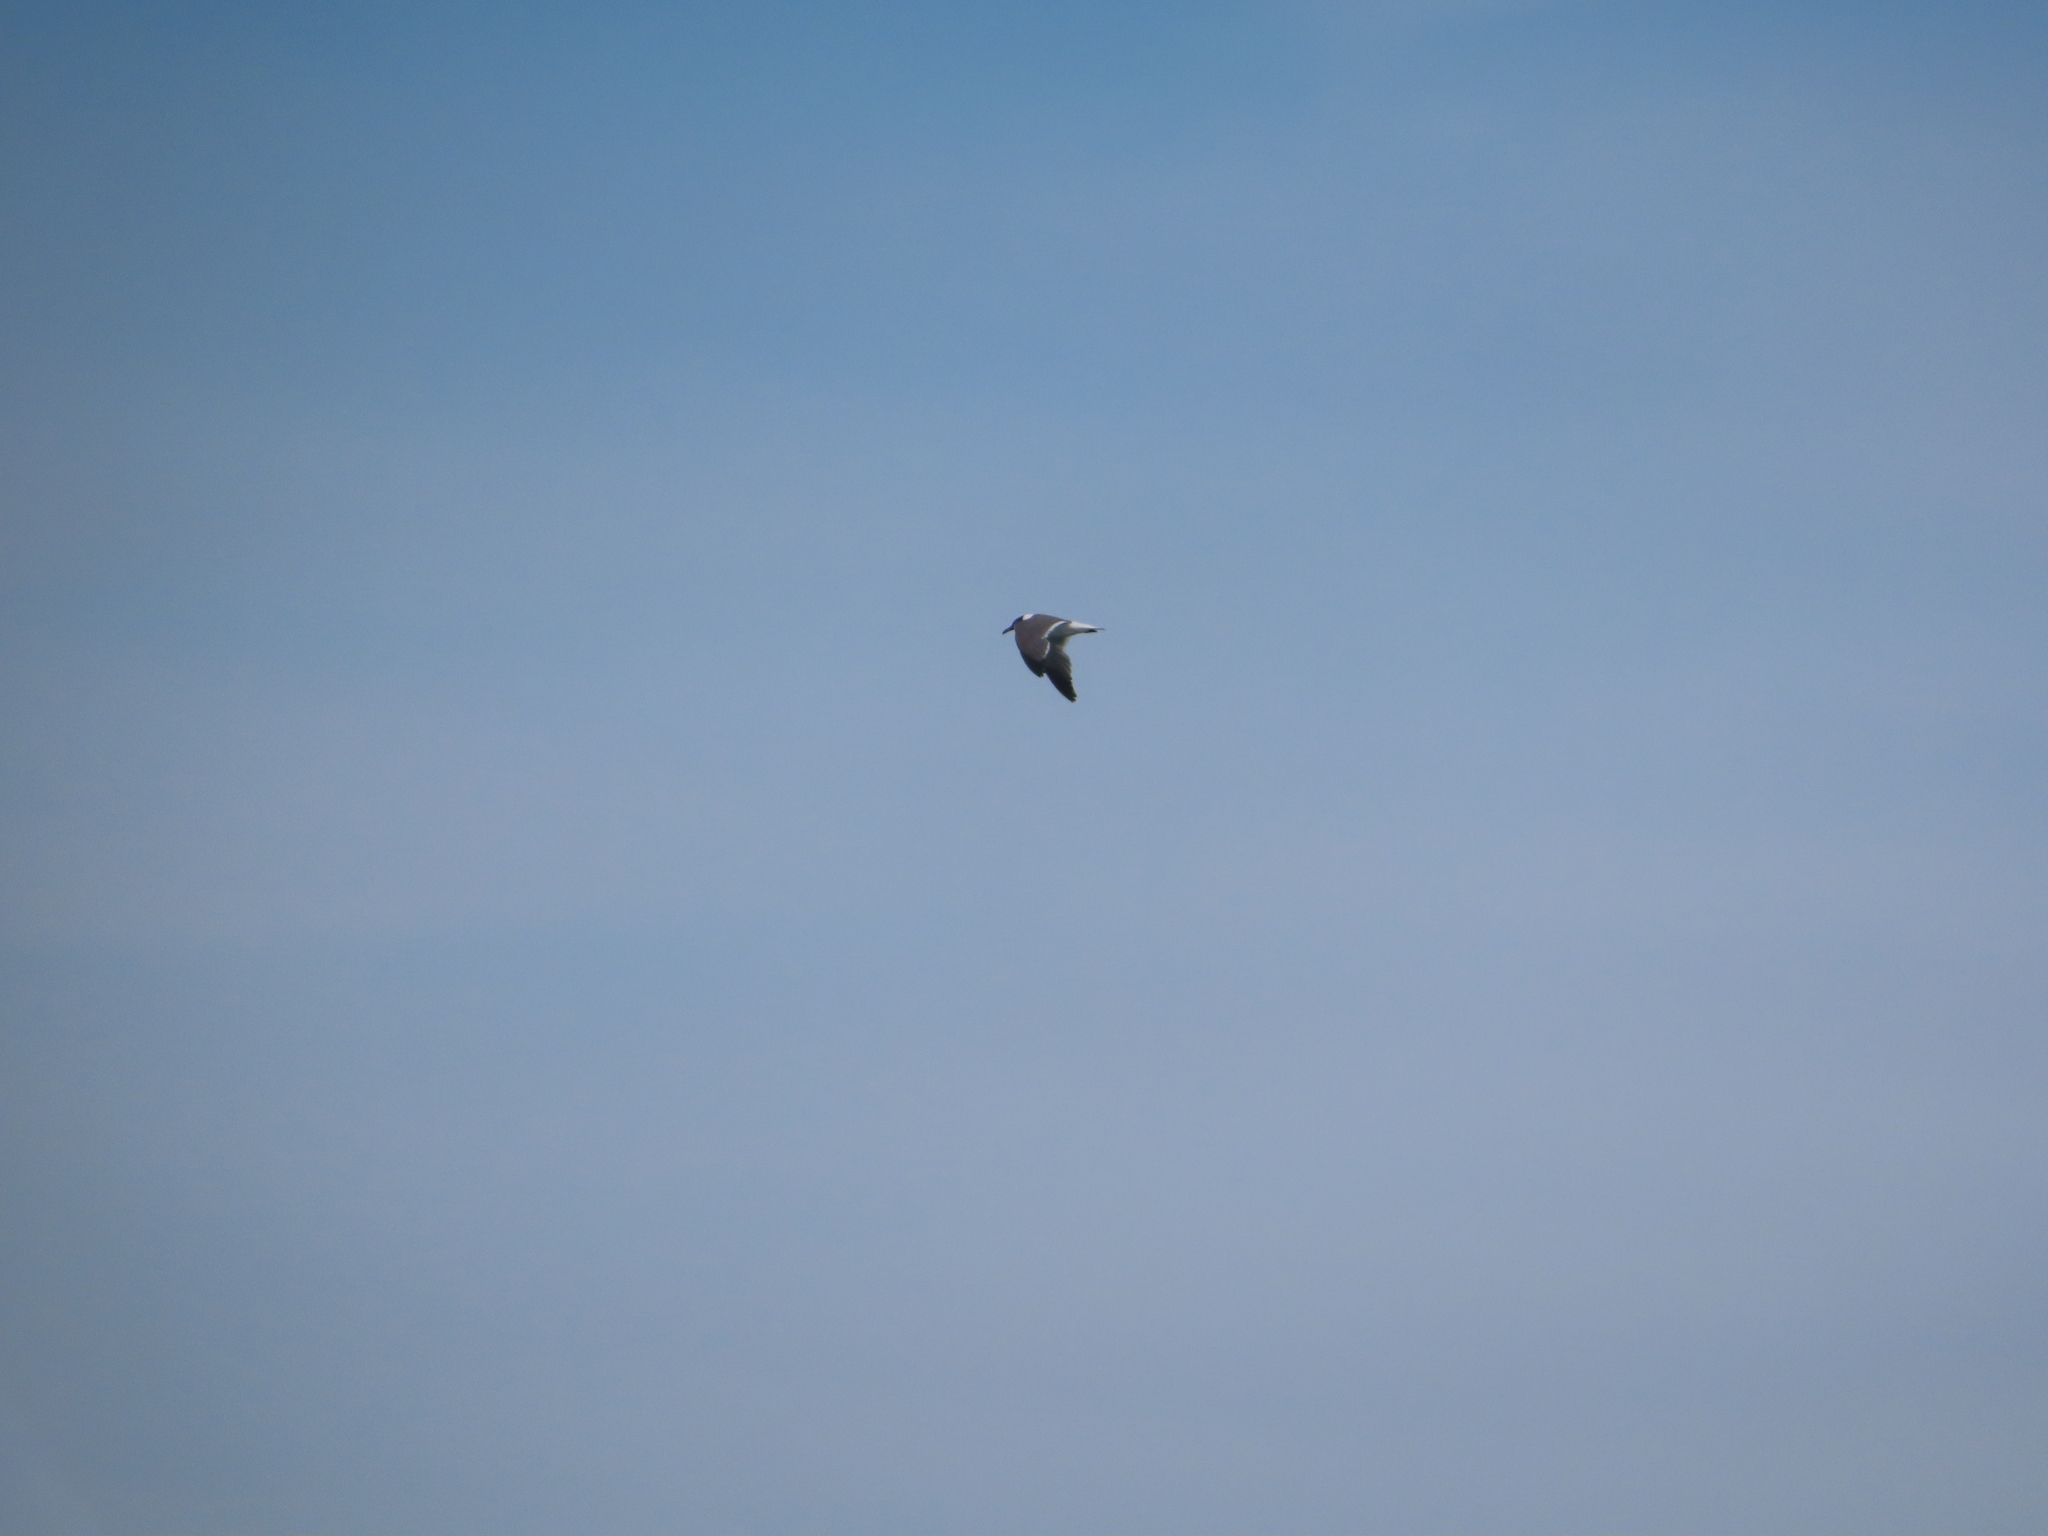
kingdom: Animalia
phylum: Chordata
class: Aves
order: Charadriiformes
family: Laridae
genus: Leucophaeus
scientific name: Leucophaeus atricilla
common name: Laughing gull
